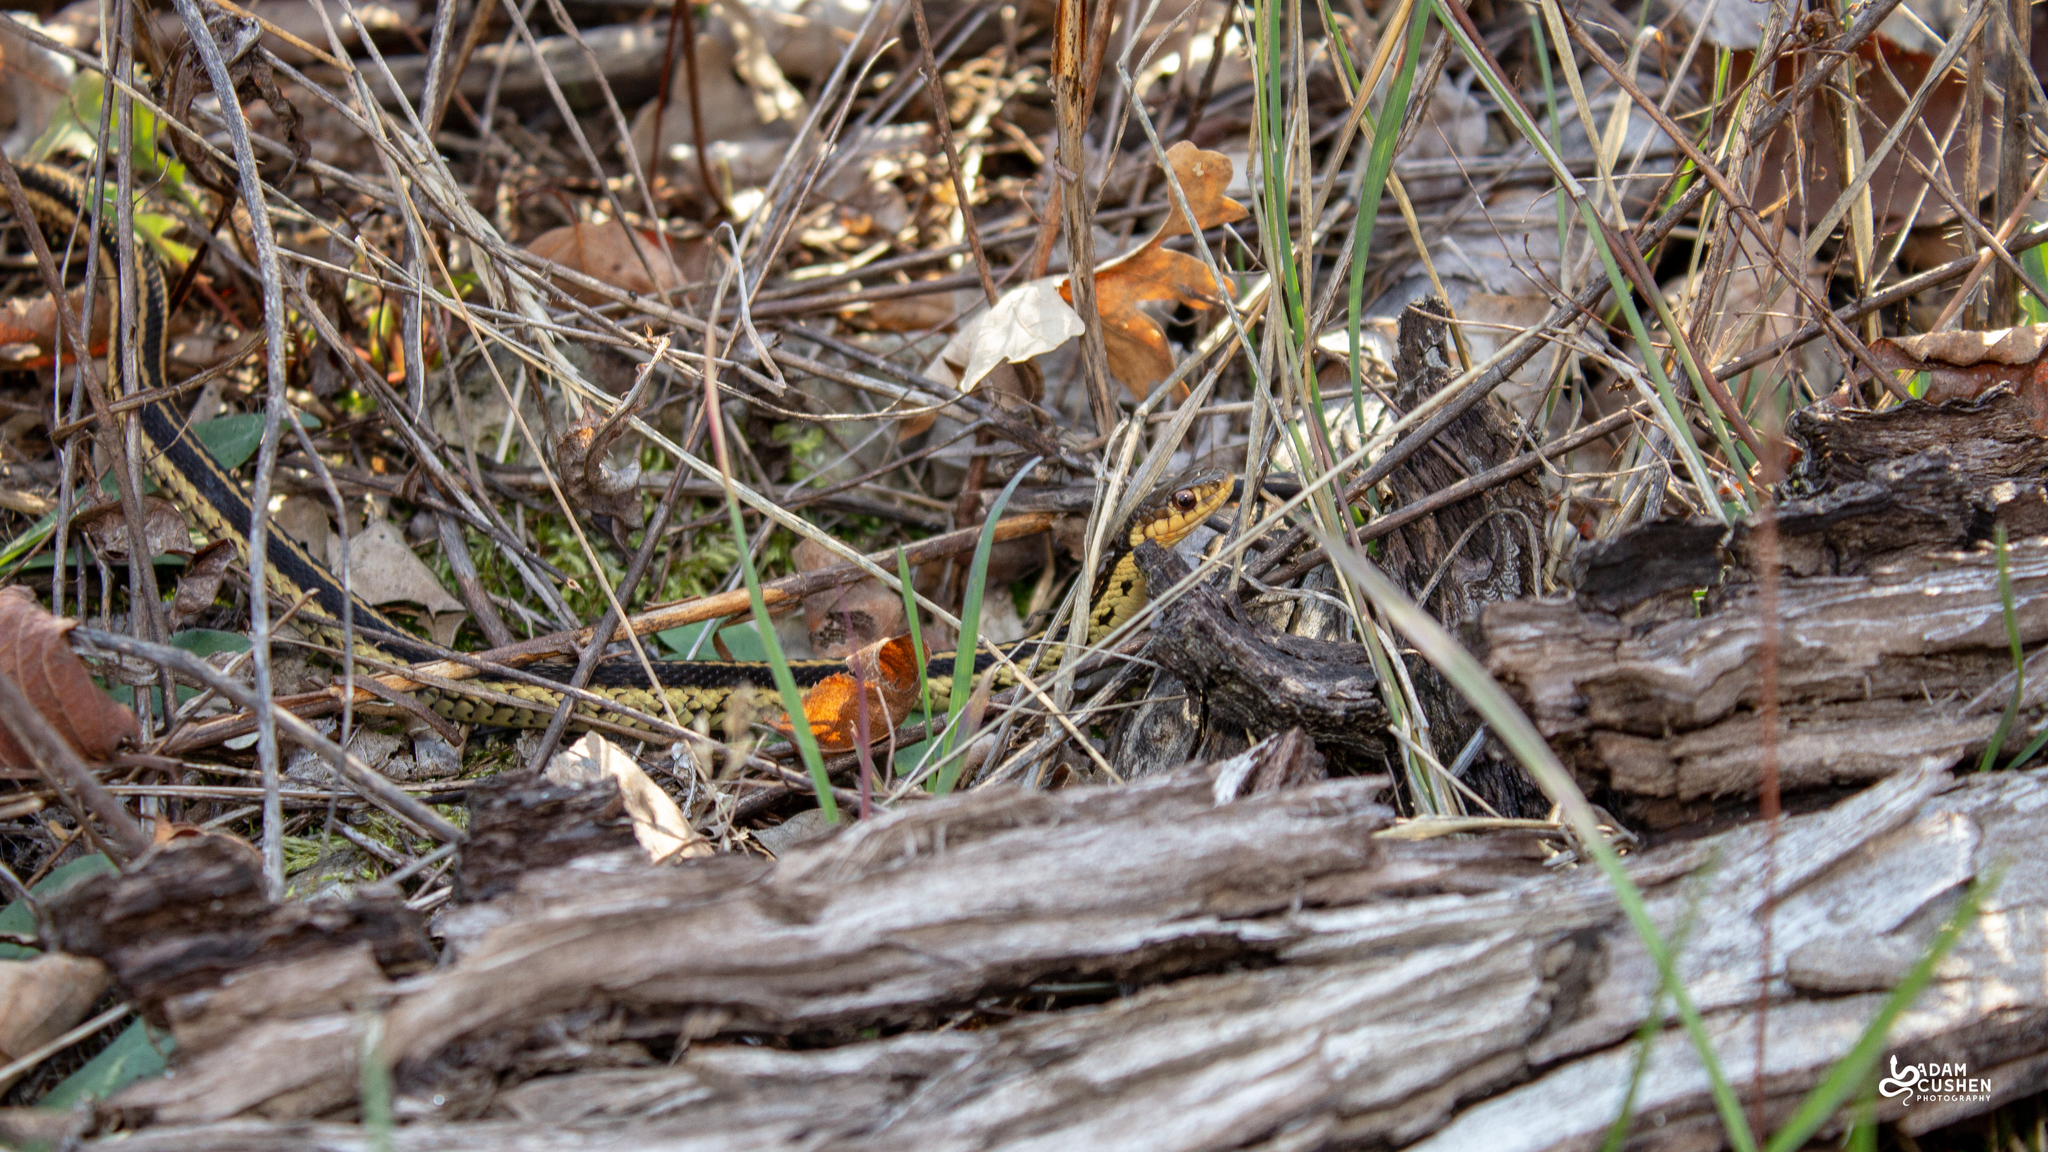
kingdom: Animalia
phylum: Chordata
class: Squamata
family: Colubridae
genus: Thamnophis
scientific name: Thamnophis sirtalis
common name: Common garter snake
